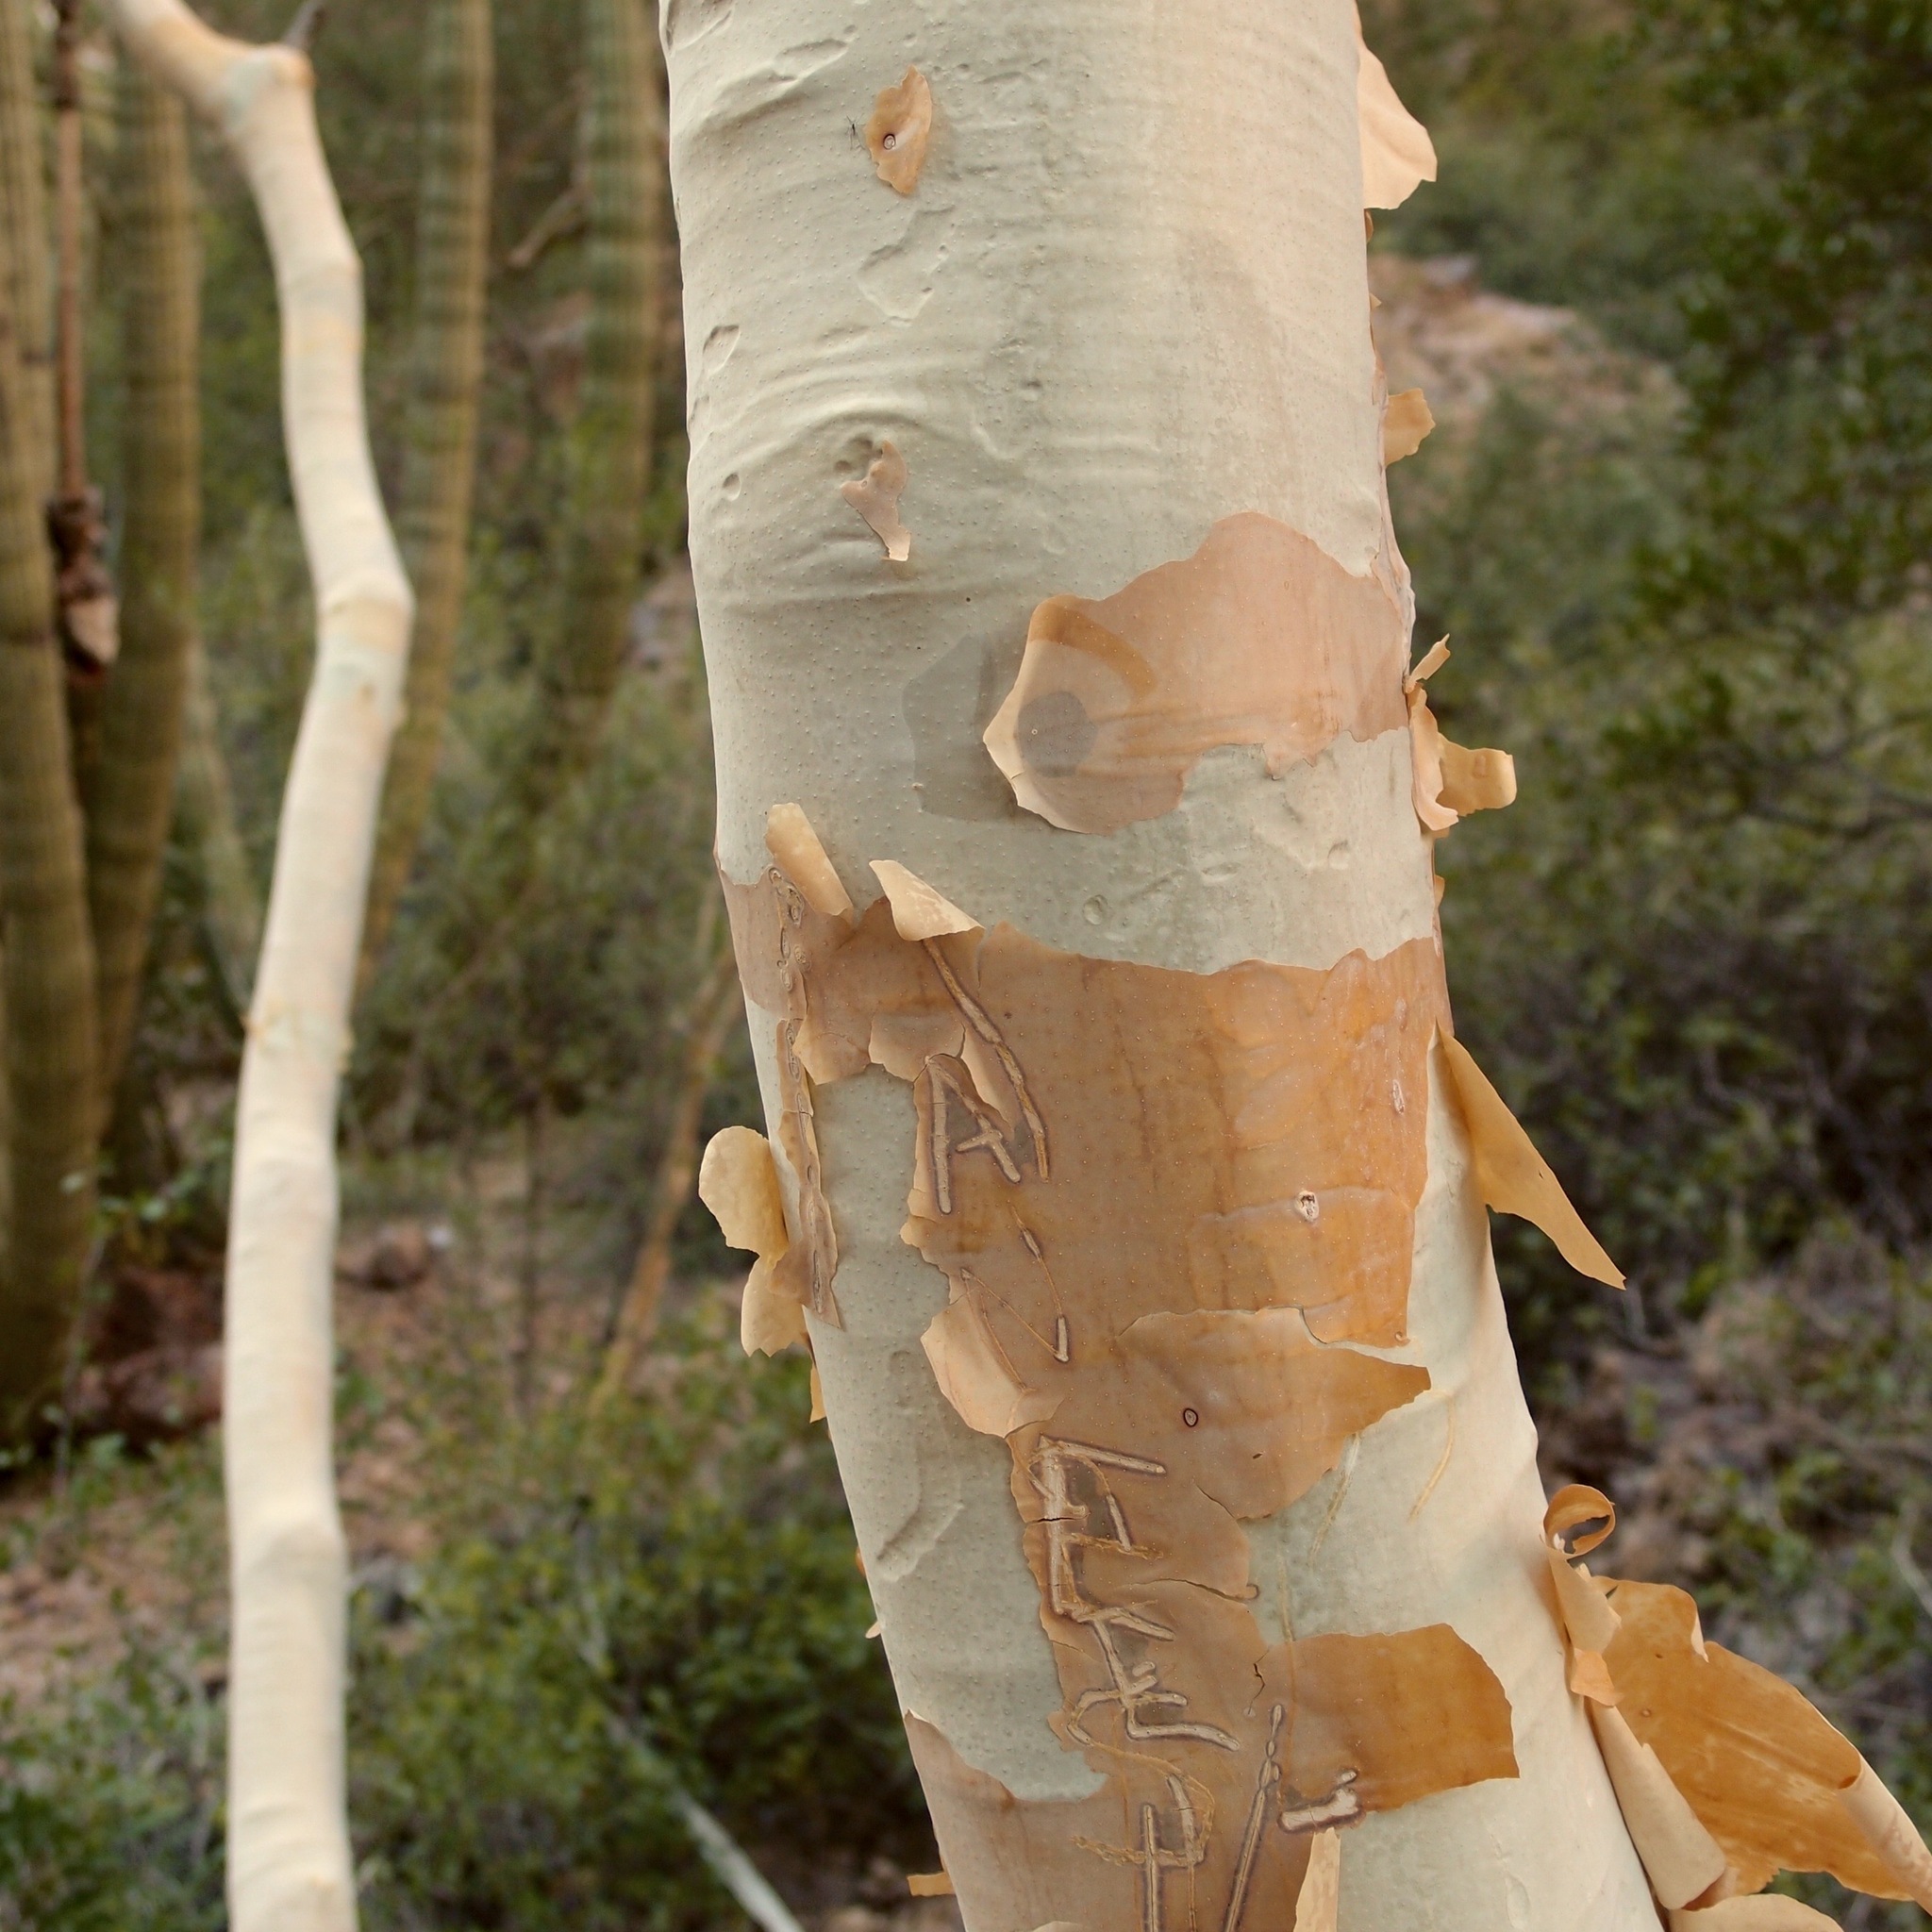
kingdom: Plantae
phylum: Tracheophyta
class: Magnoliopsida
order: Fabales
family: Fabaceae
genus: Mariosousa
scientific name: Mariosousa heterophylla
